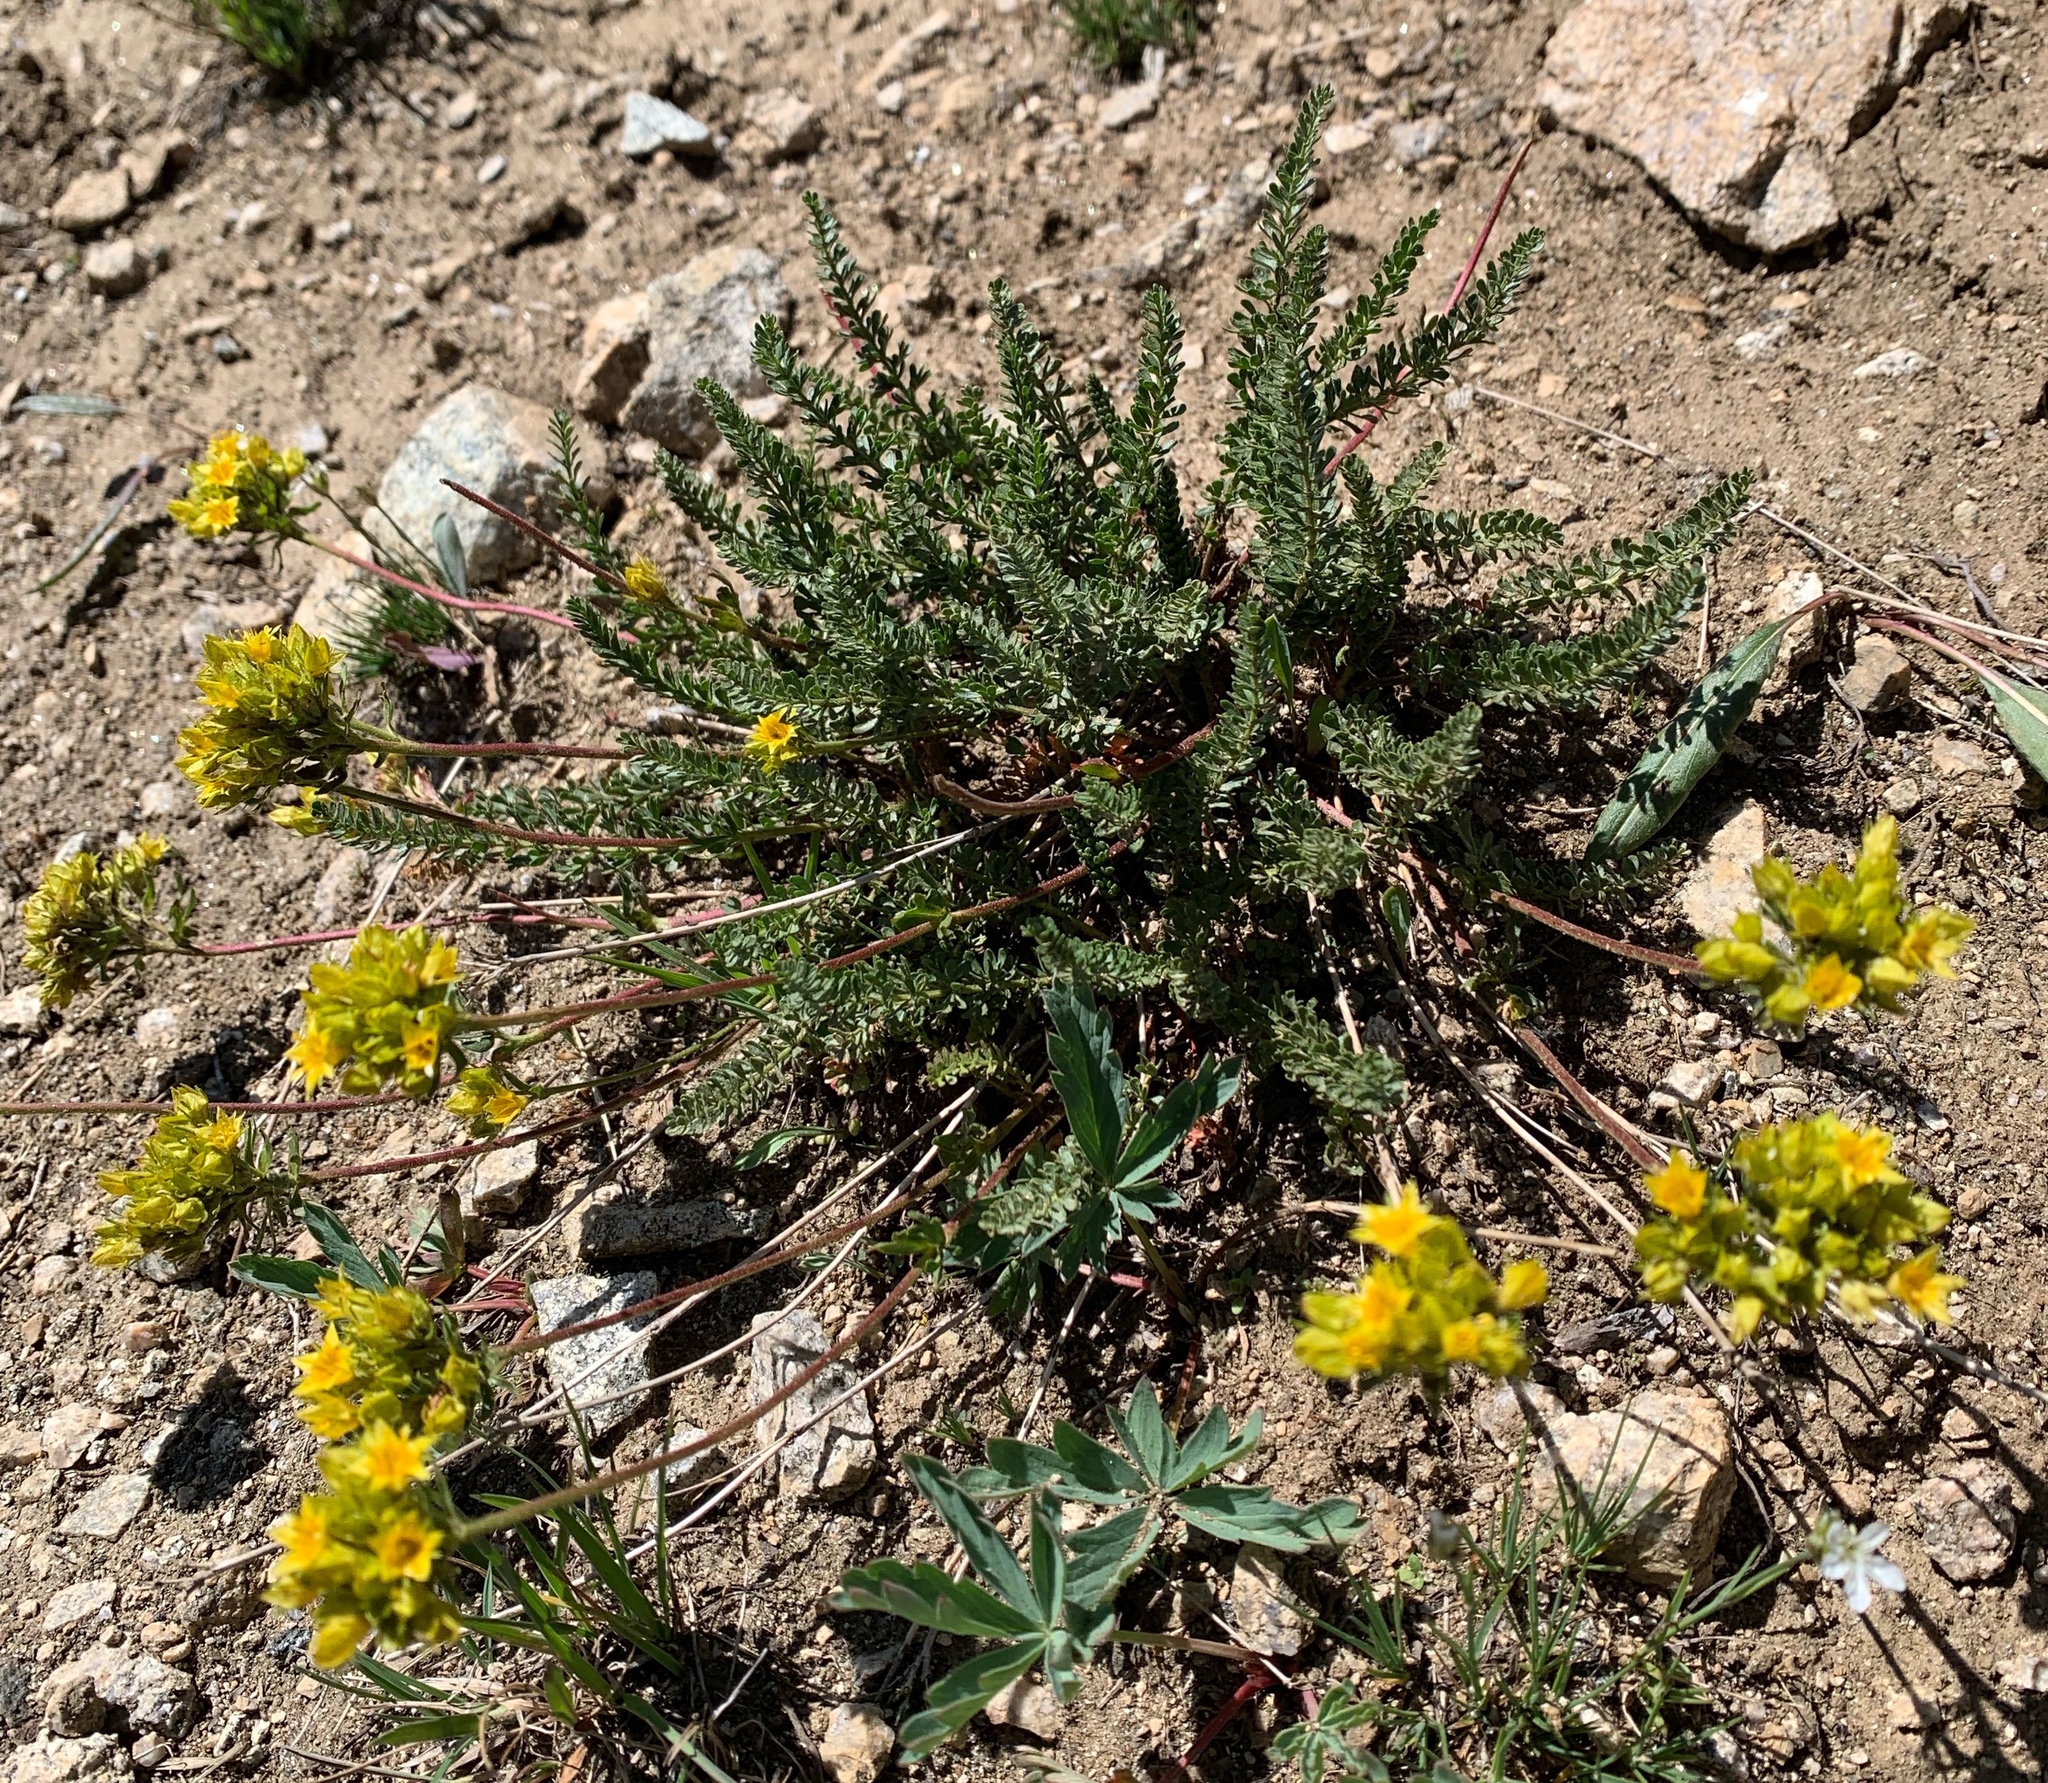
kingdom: Plantae
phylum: Tracheophyta
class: Magnoliopsida
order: Rosales
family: Rosaceae
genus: Potentilla
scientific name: Potentilla gordonii
